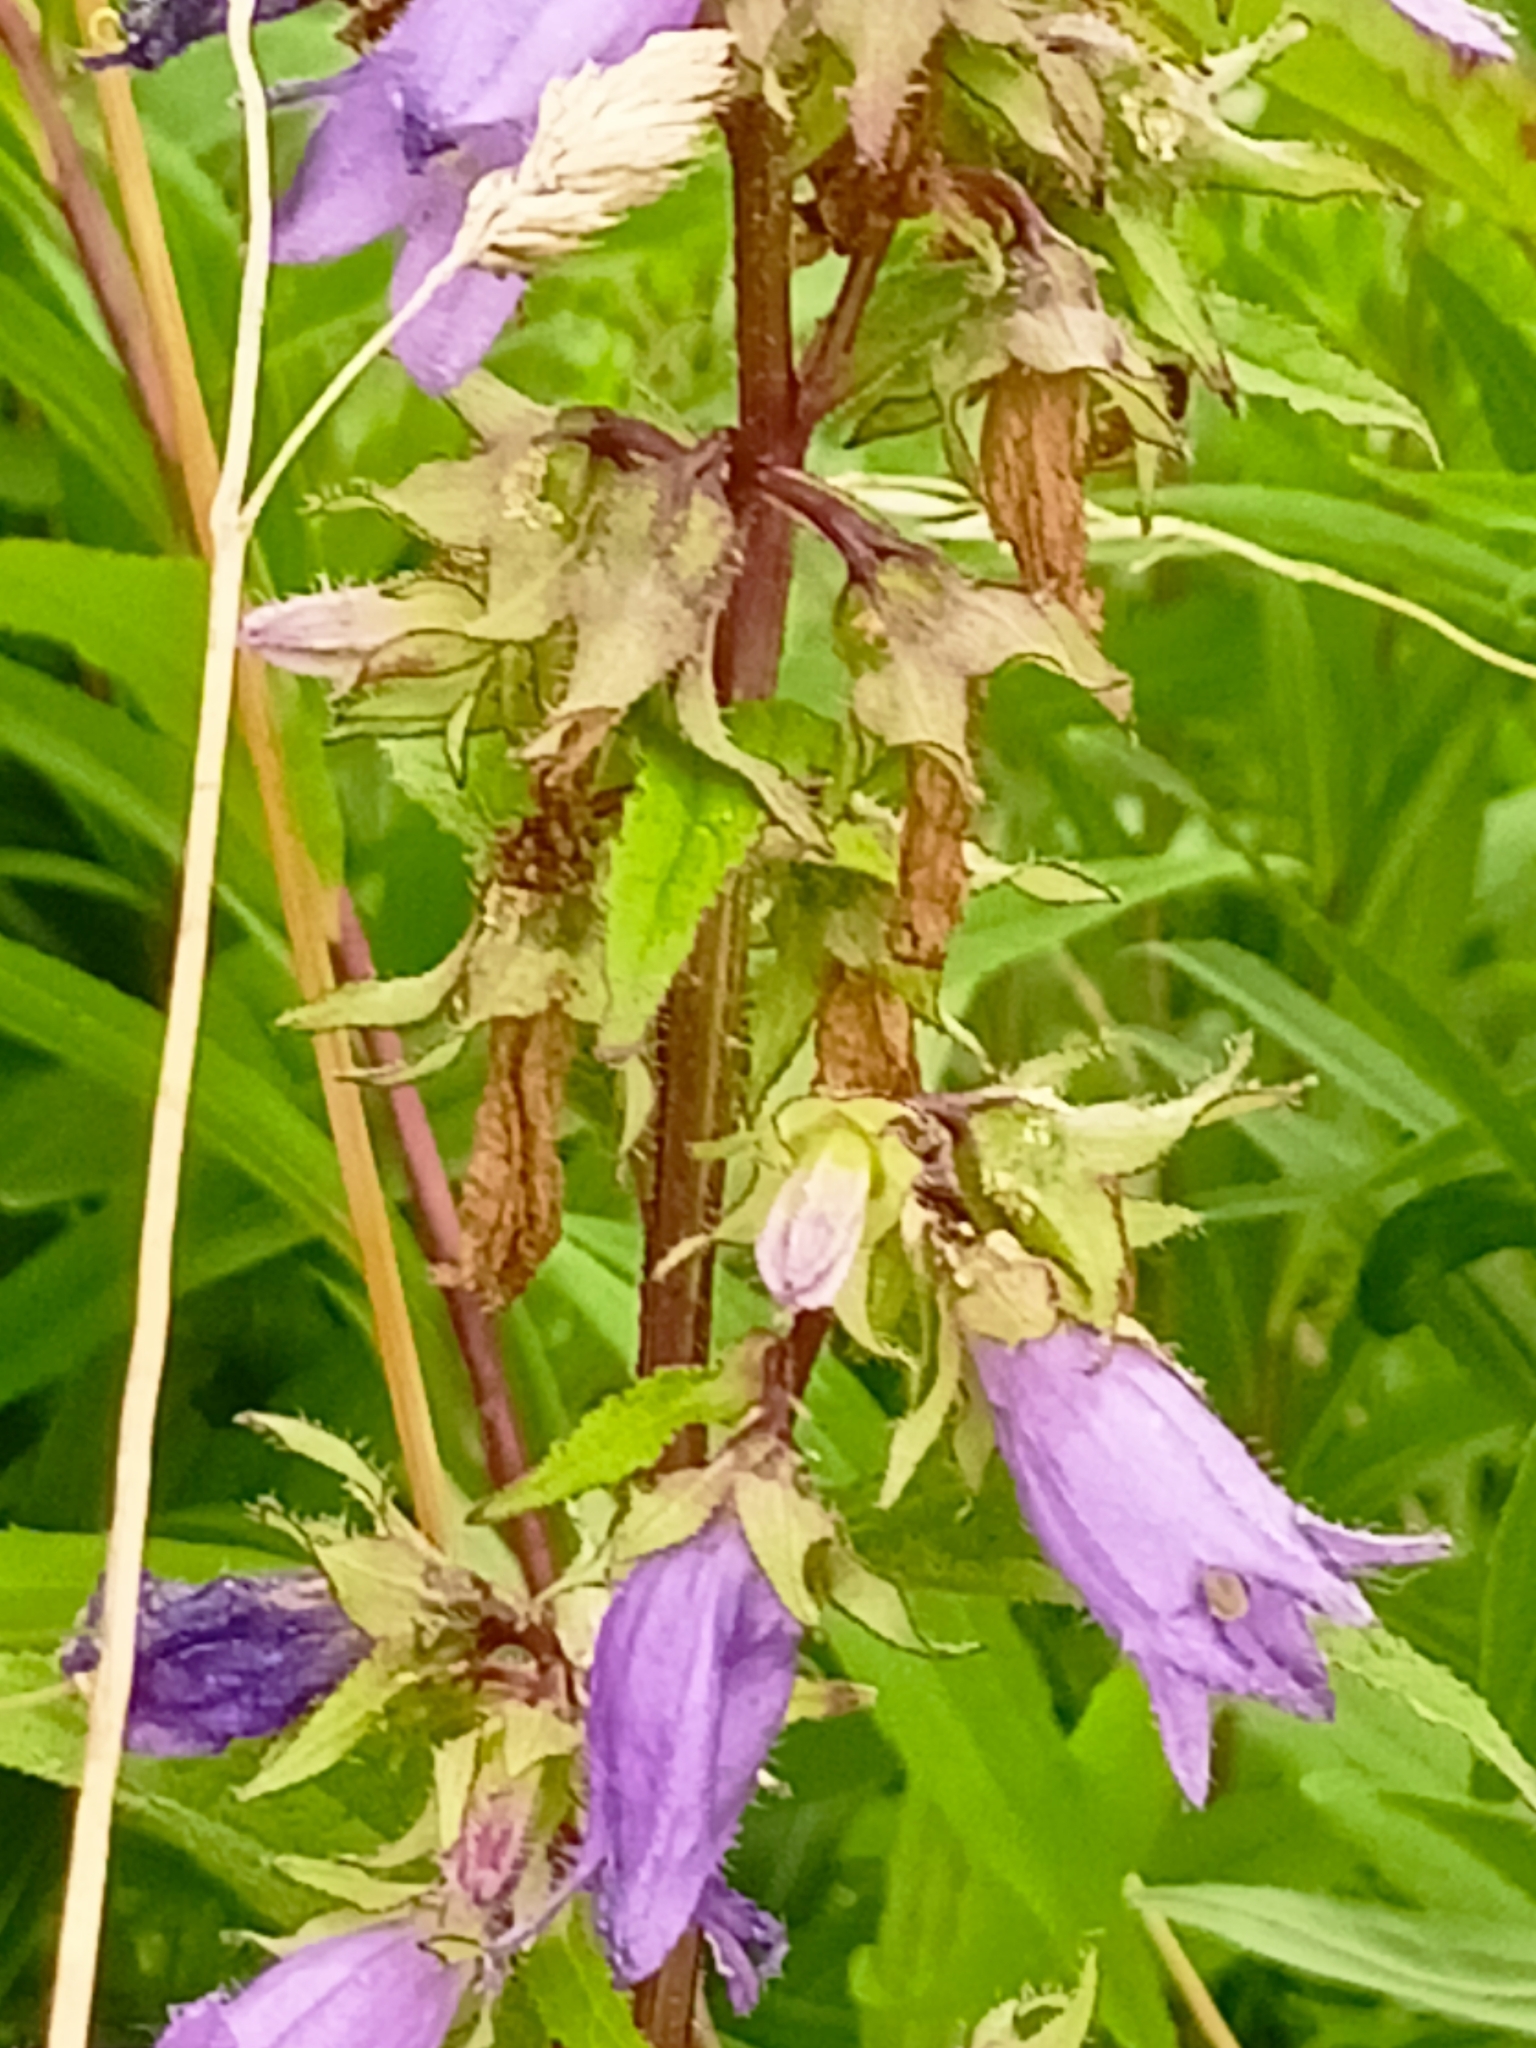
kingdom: Plantae
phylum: Tracheophyta
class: Magnoliopsida
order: Asterales
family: Campanulaceae
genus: Campanula
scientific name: Campanula trachelium
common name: Nettle-leaved bellflower
